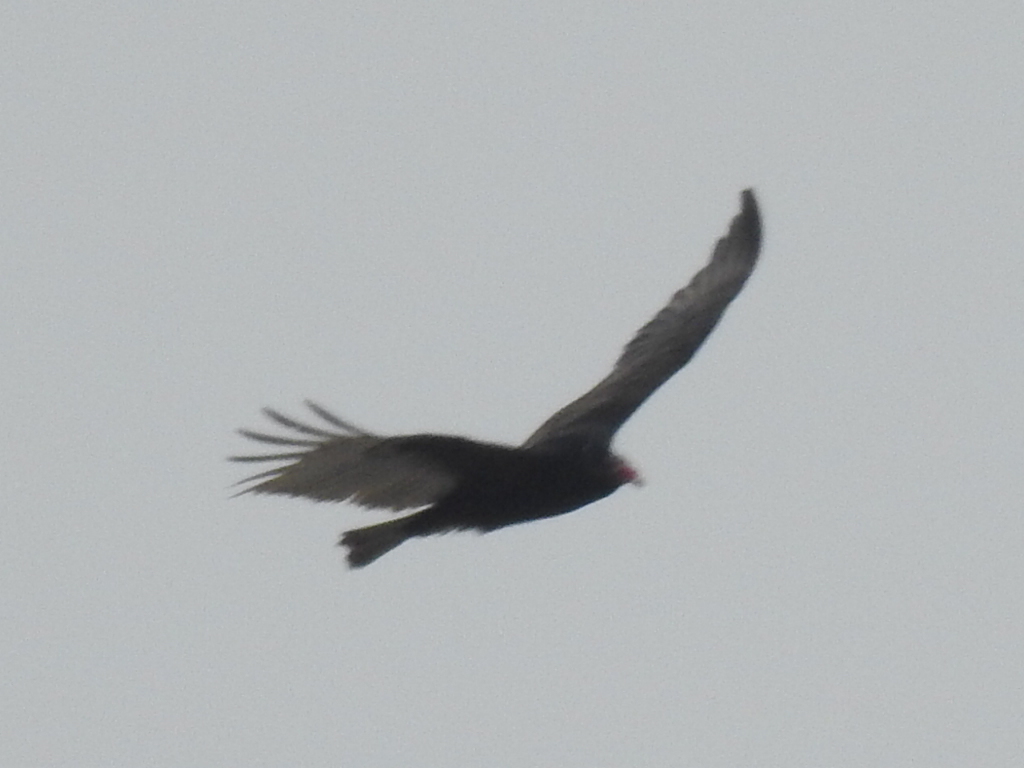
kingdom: Animalia
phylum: Chordata
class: Aves
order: Accipitriformes
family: Cathartidae
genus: Cathartes
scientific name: Cathartes aura
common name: Turkey vulture
